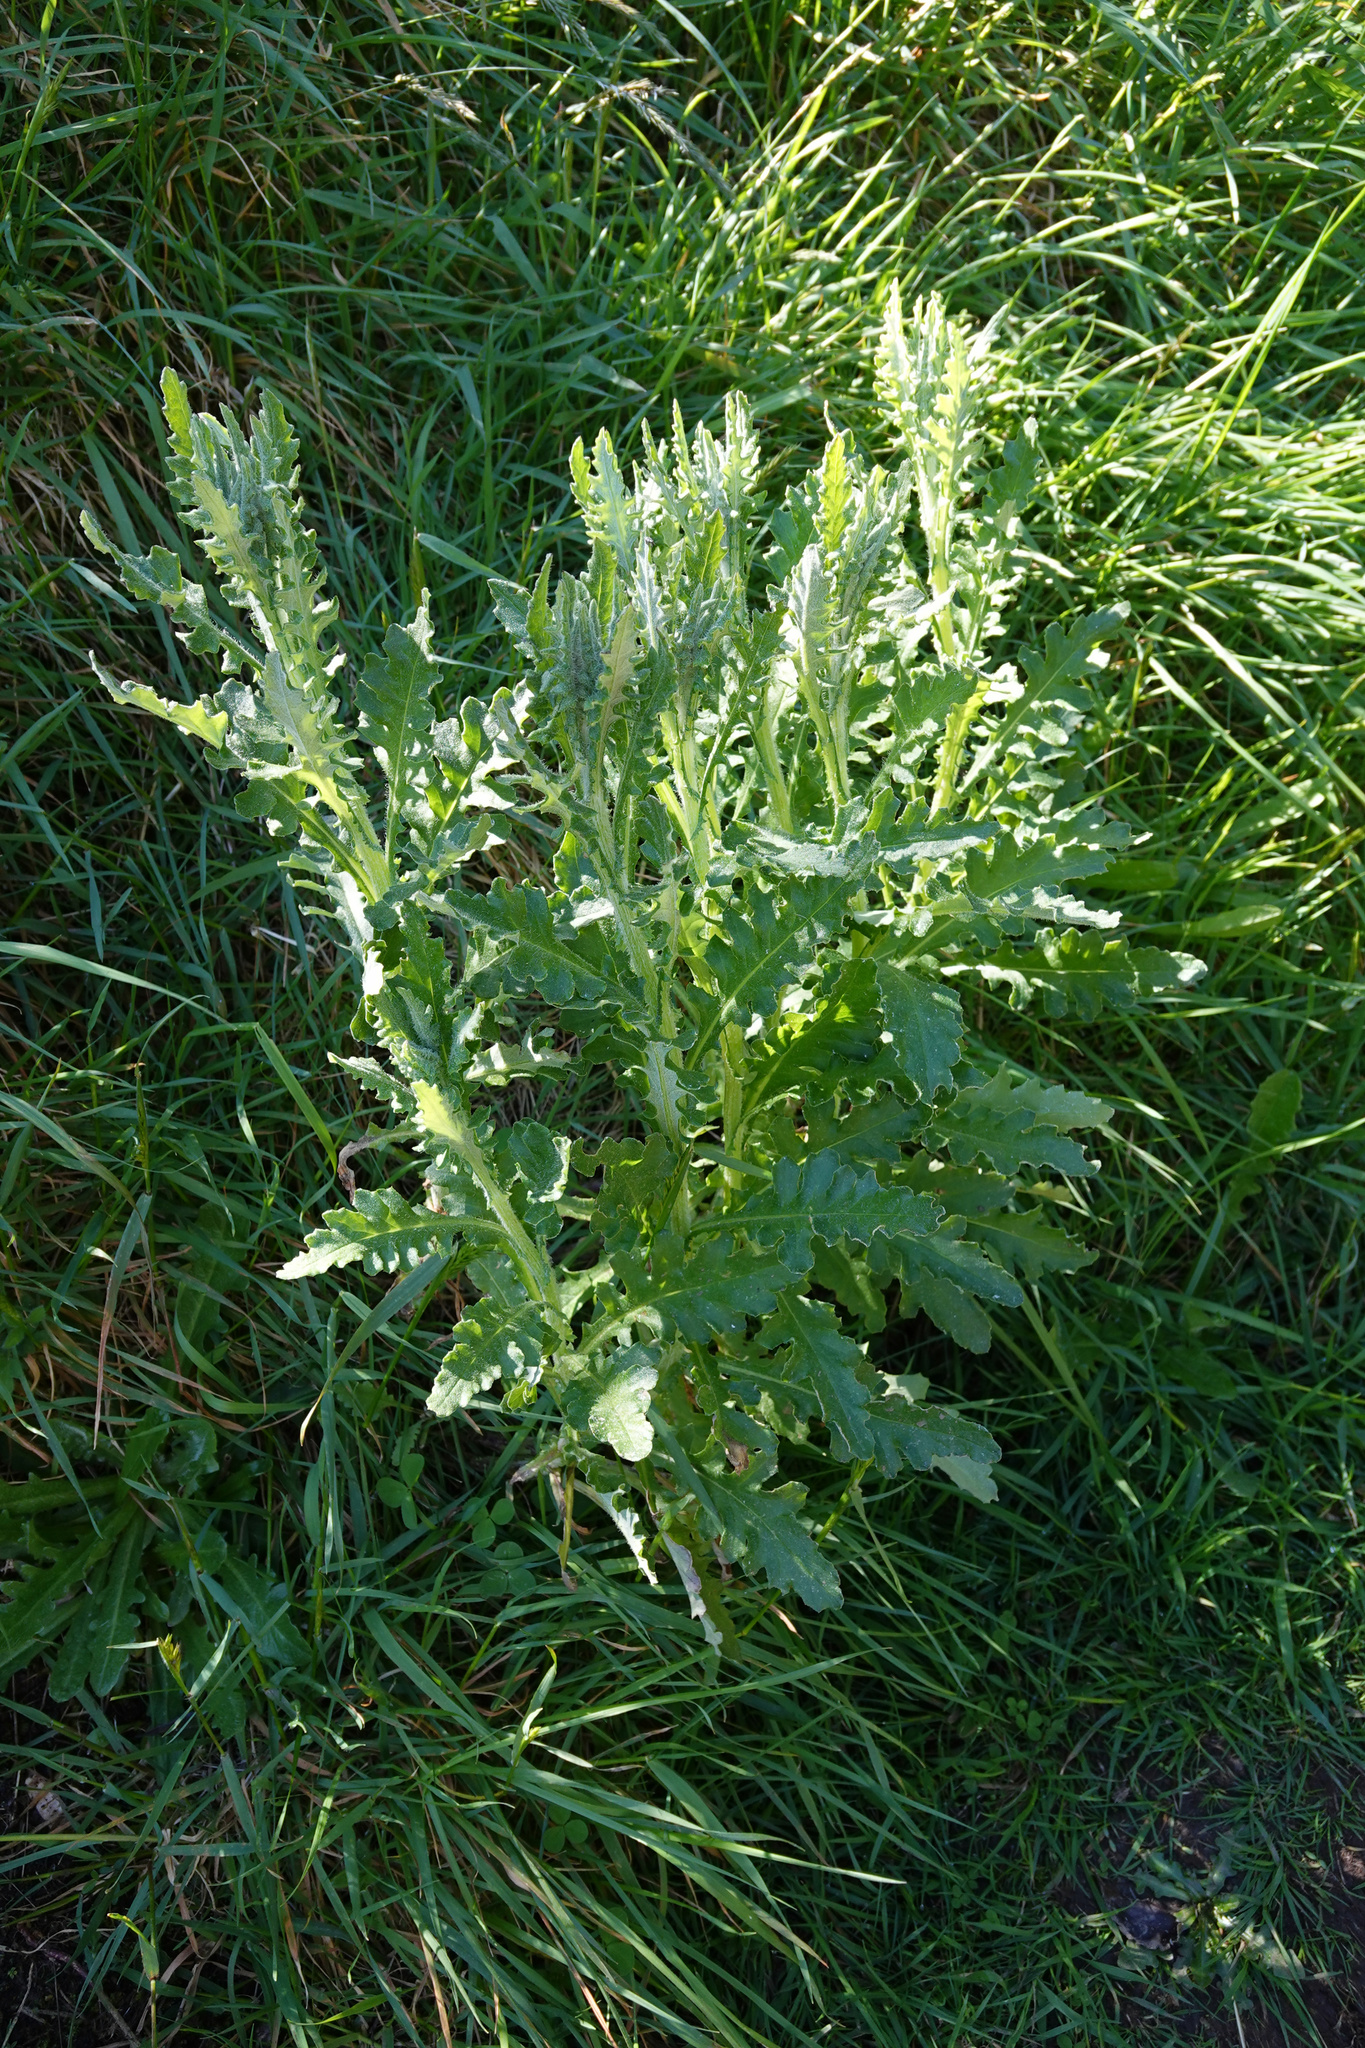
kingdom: Plantae
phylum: Tracheophyta
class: Magnoliopsida
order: Asterales
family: Asteraceae
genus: Senecio
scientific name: Senecio glomeratus
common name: Cutleaf burnweed
